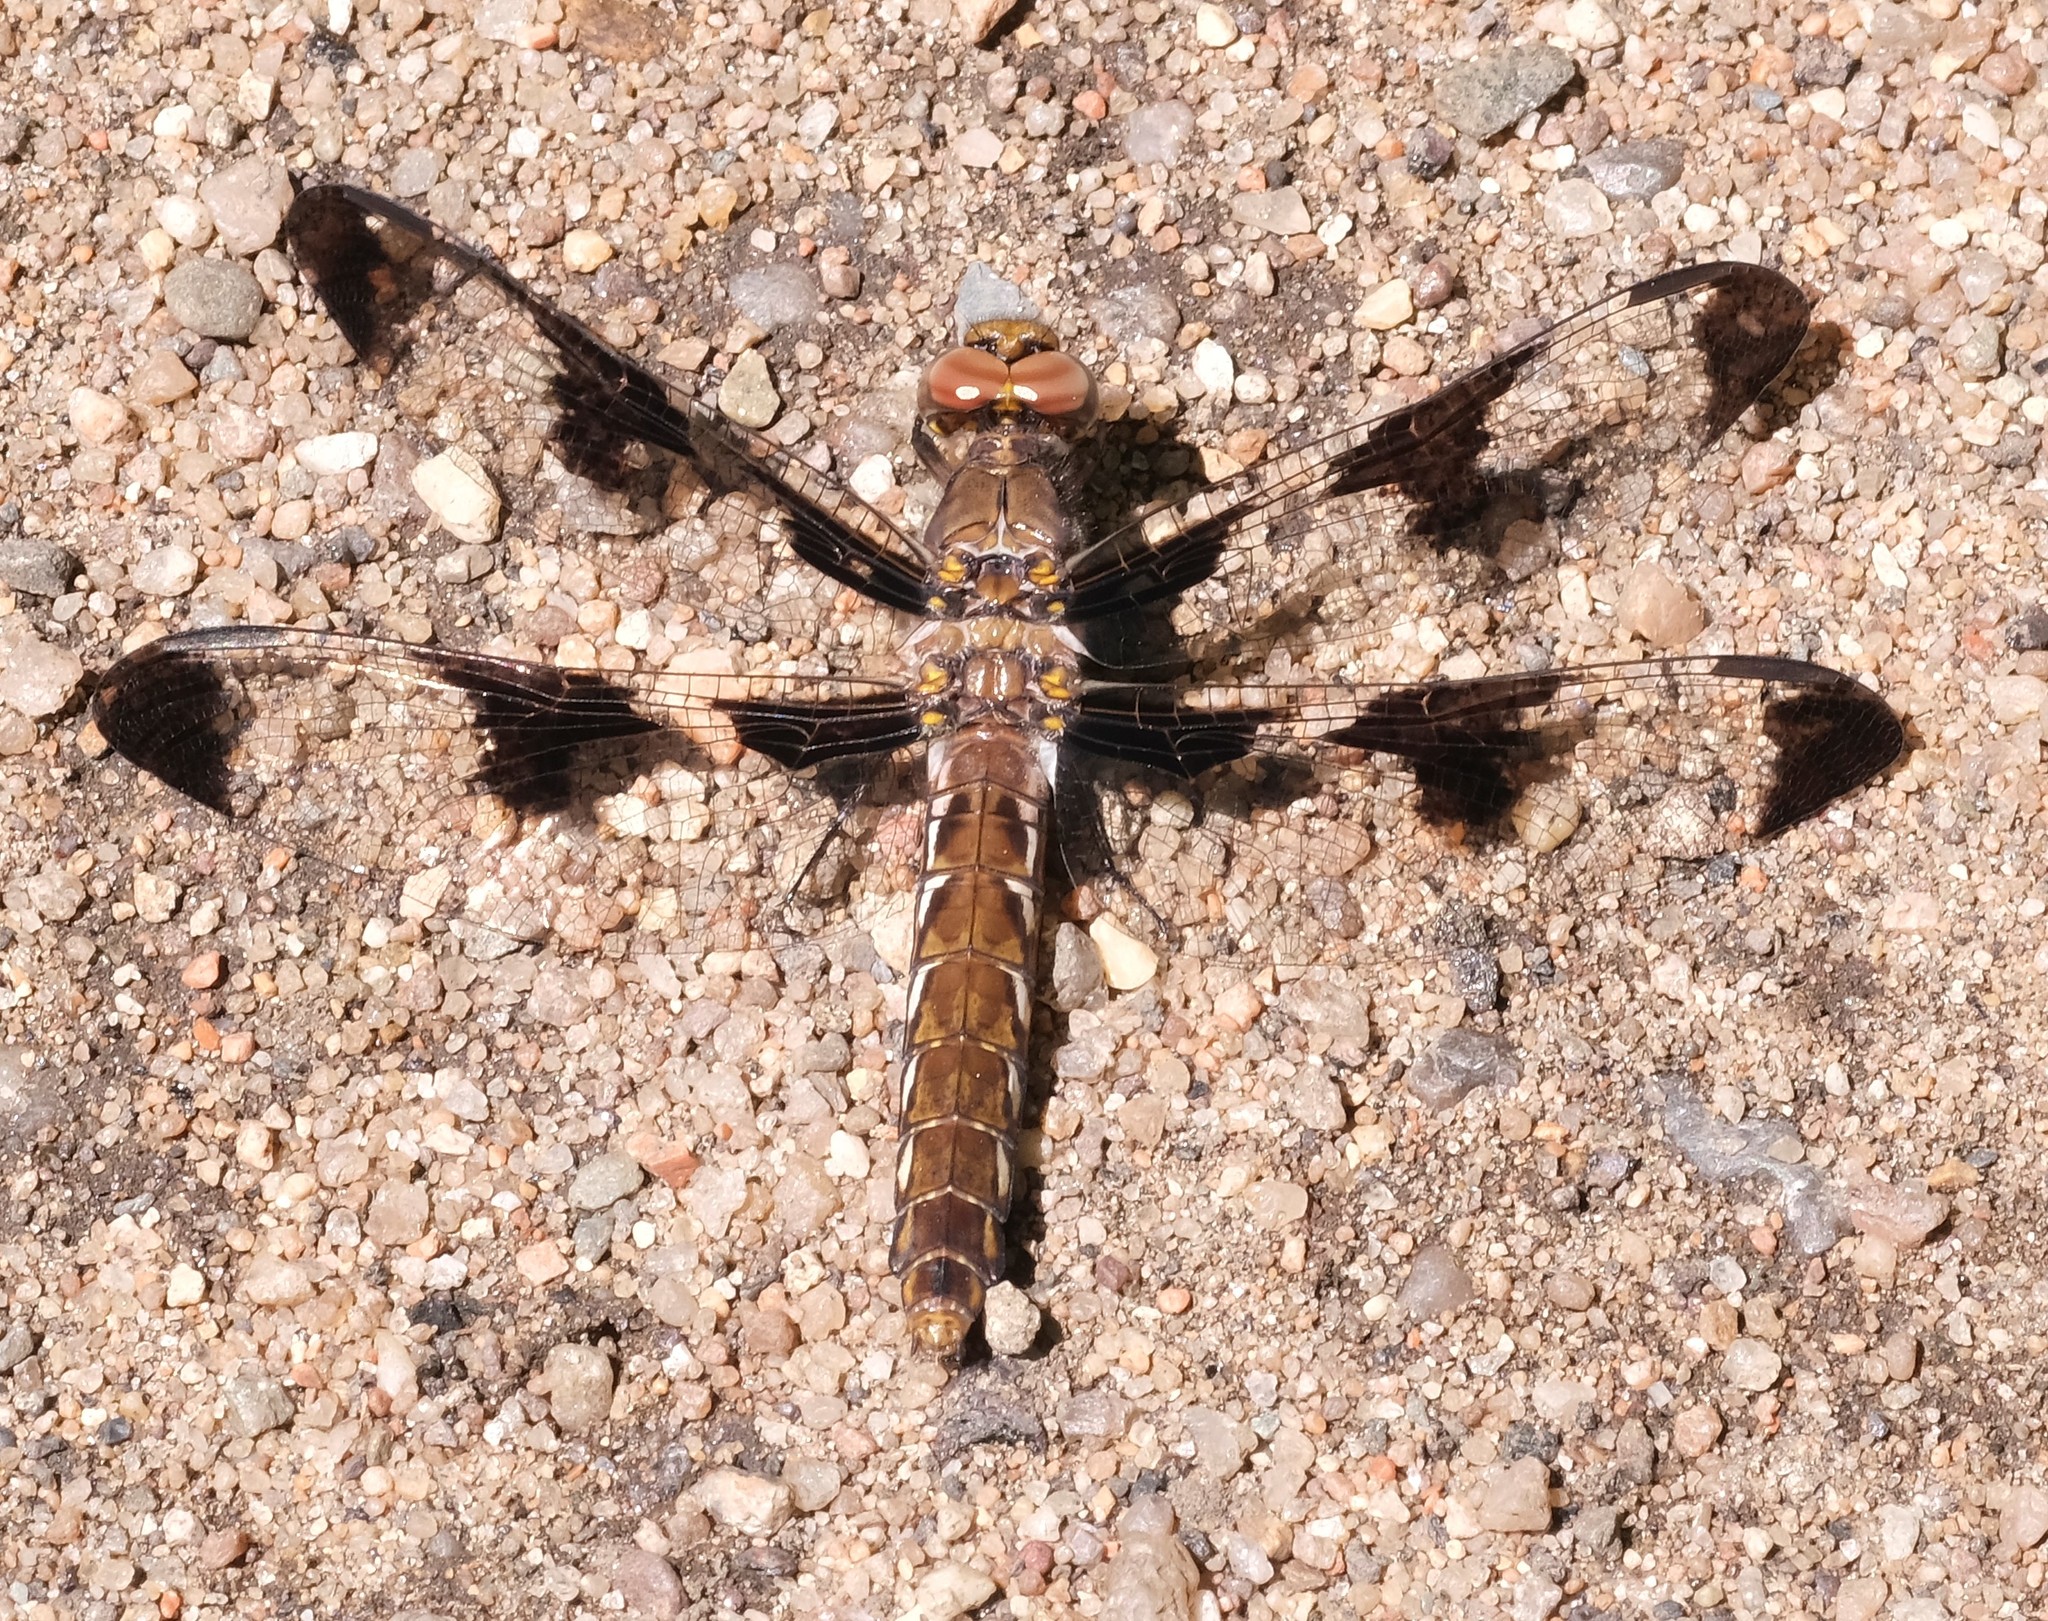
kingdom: Animalia
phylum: Arthropoda
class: Insecta
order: Odonata
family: Libellulidae
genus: Plathemis
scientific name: Plathemis lydia
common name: Common whitetail
